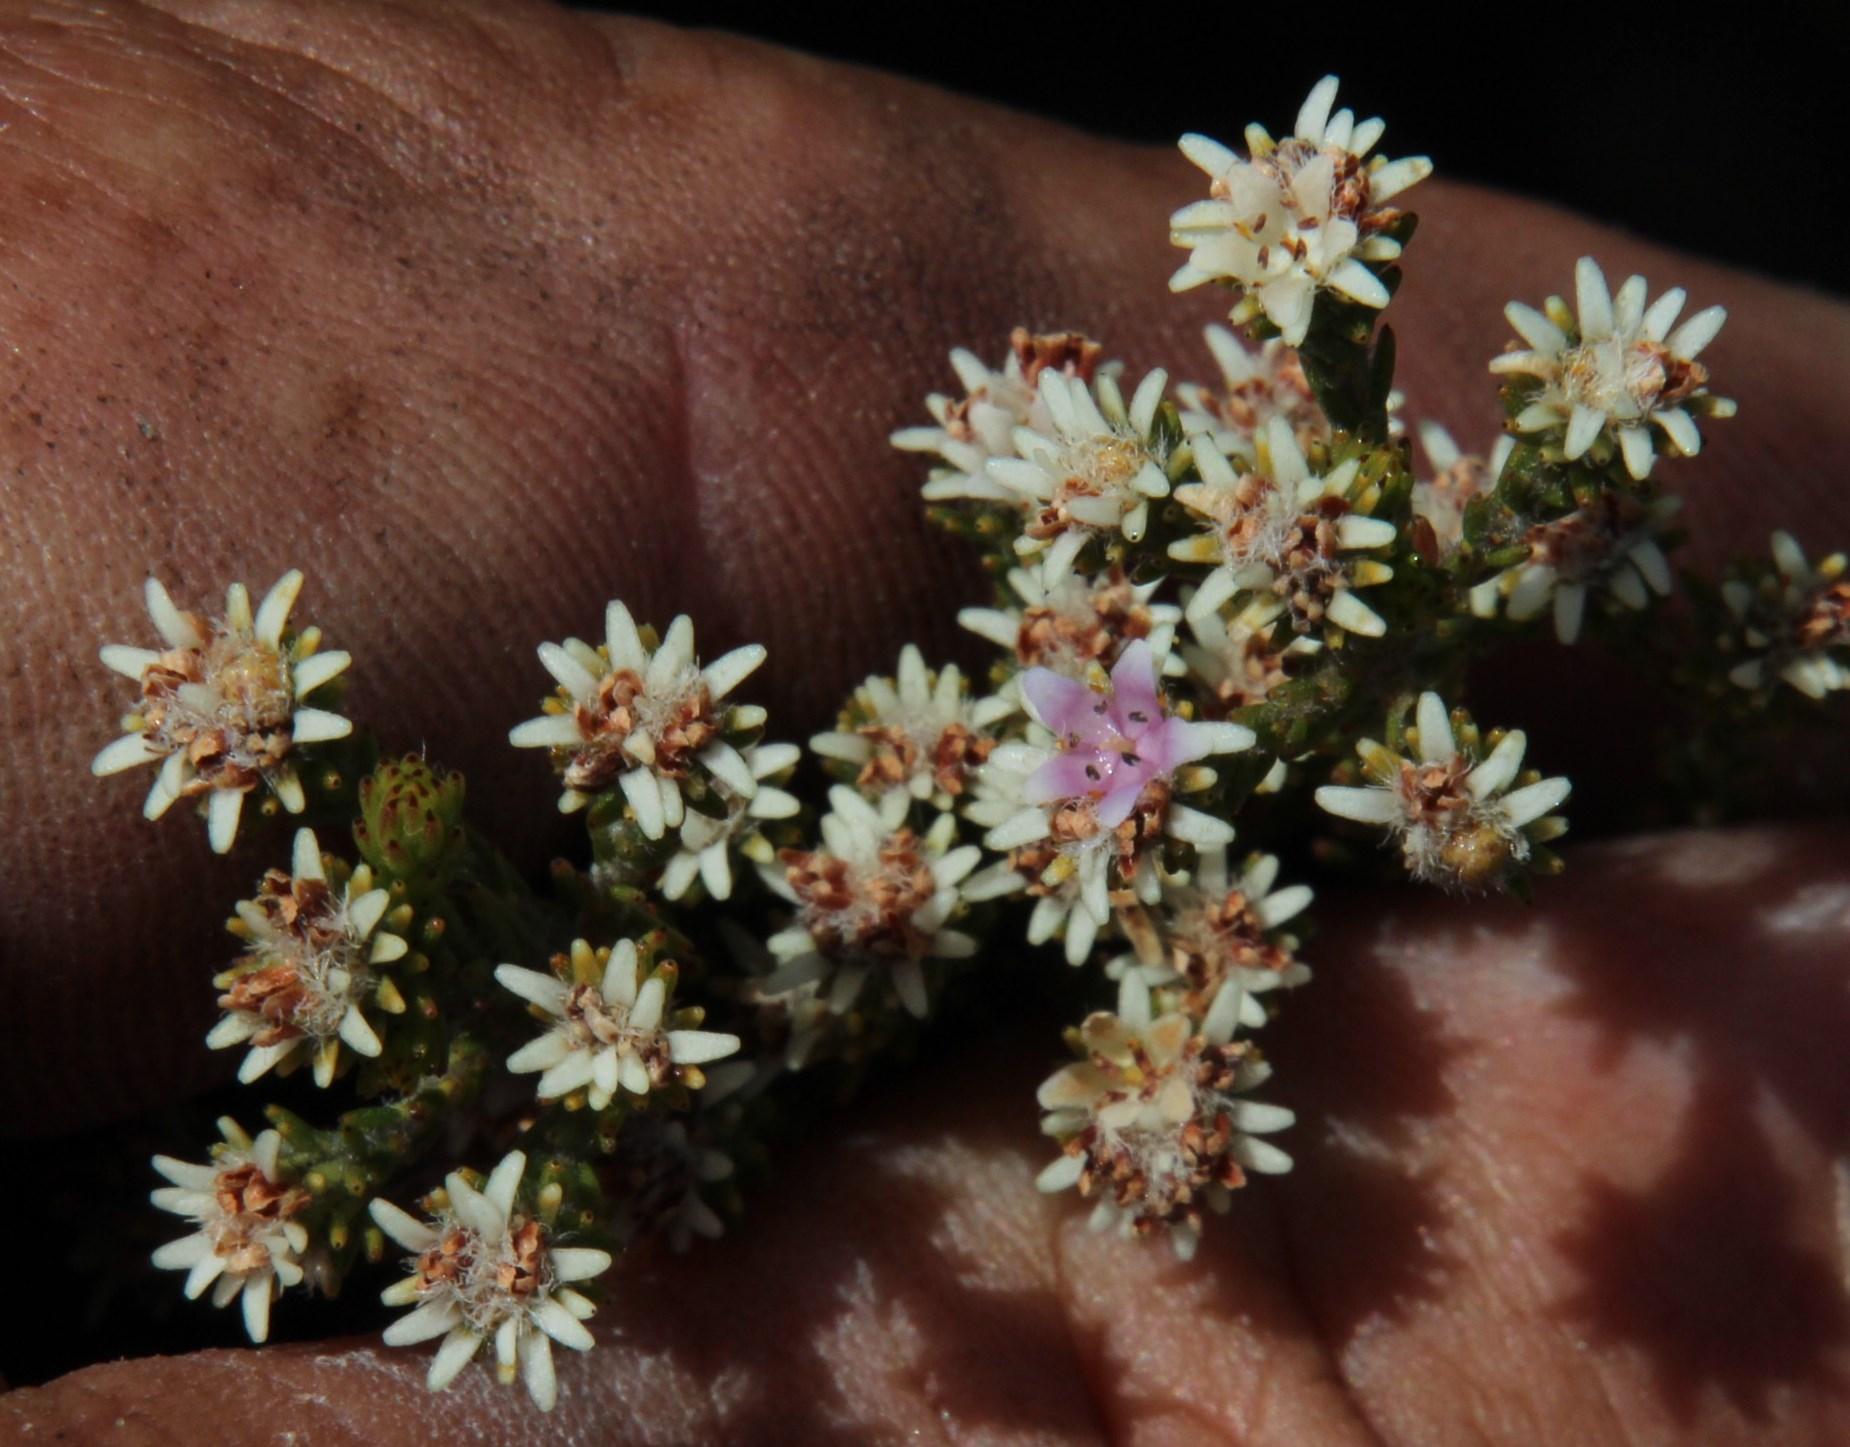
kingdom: Plantae
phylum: Tracheophyta
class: Magnoliopsida
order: Bruniales
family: Bruniaceae
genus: Staavia
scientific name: Staavia radiata
